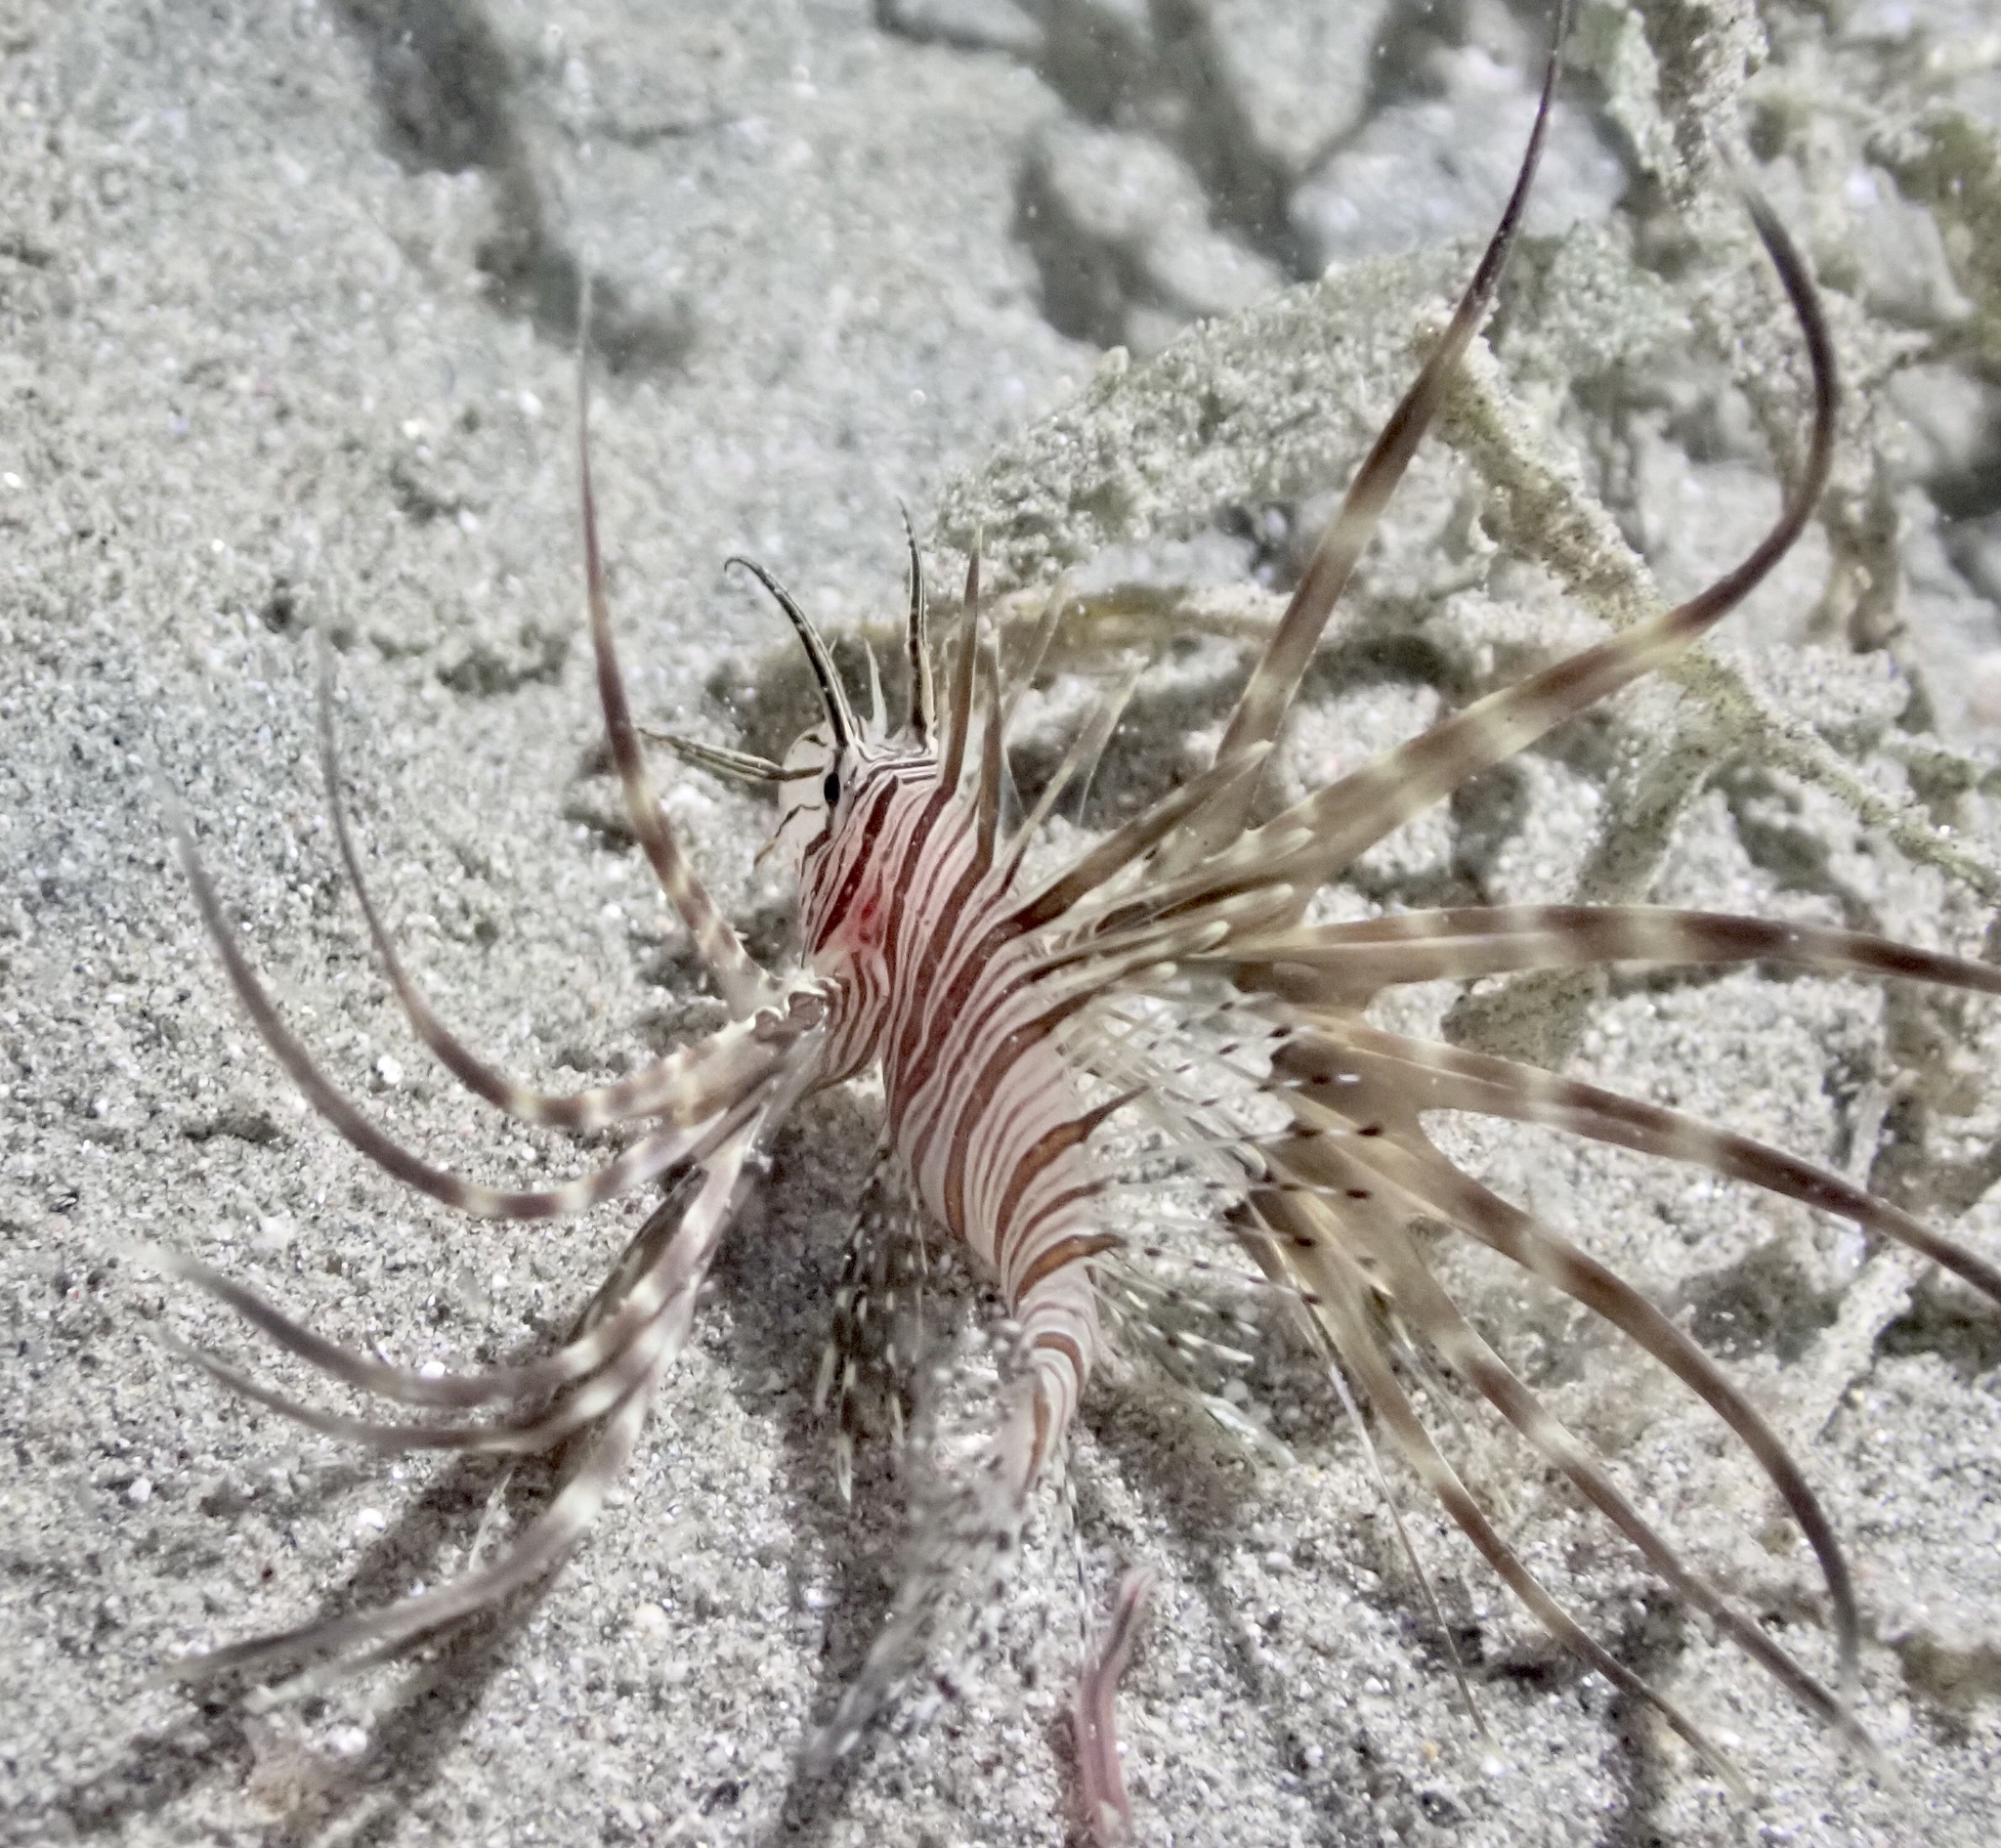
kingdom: Animalia
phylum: Chordata
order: Scorpaeniformes
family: Scorpaenidae
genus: Pterois
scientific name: Pterois miles
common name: Devil firefish
